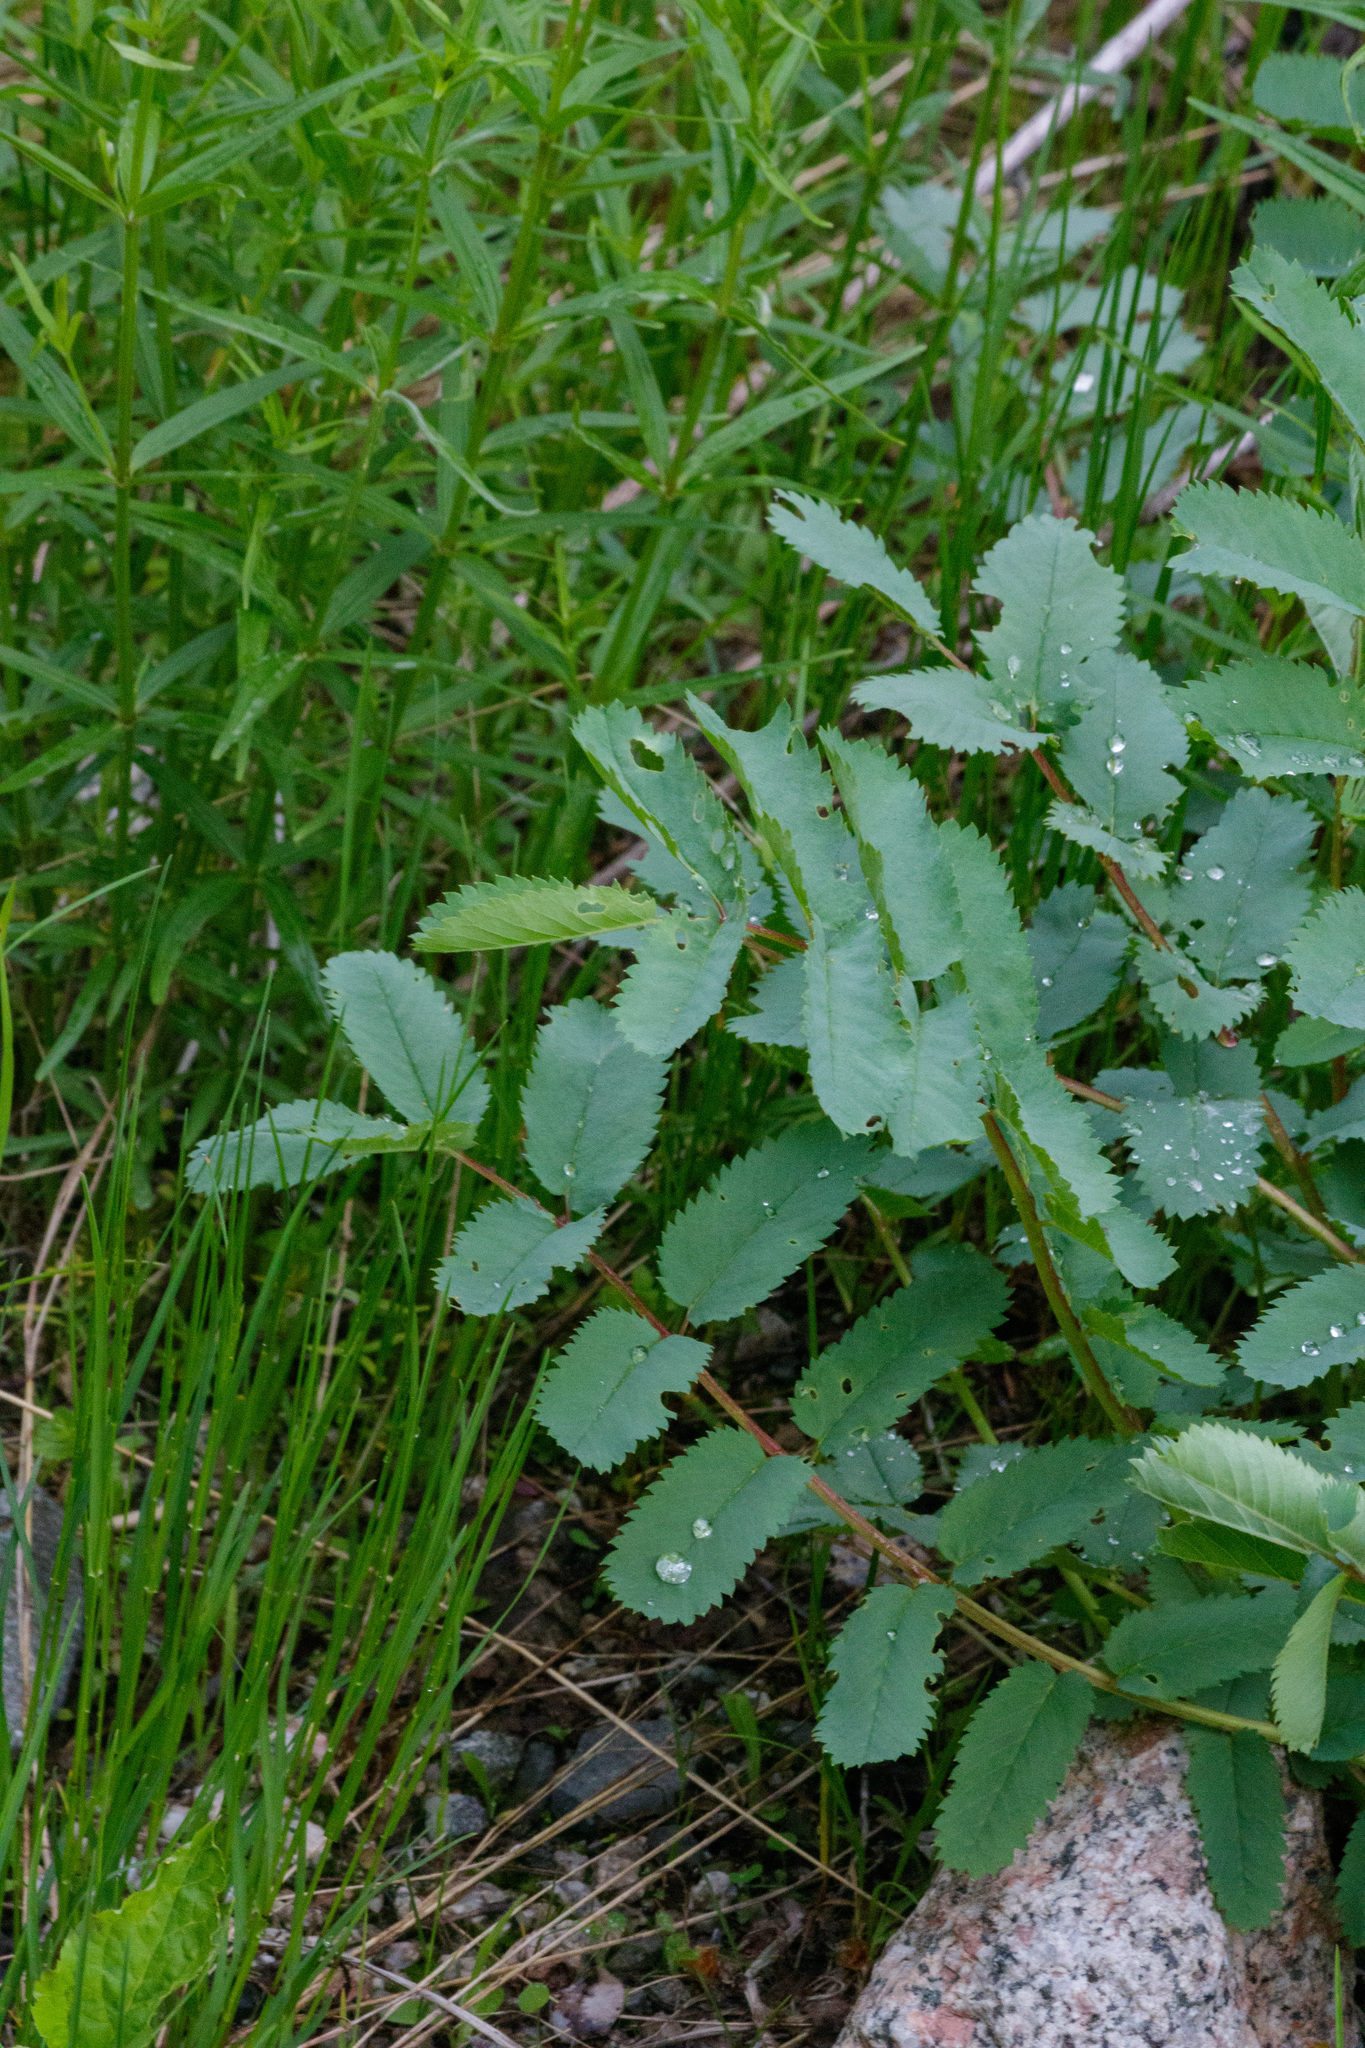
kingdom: Plantae
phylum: Tracheophyta
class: Magnoliopsida
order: Rosales
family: Rosaceae
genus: Poterium
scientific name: Poterium sanguisorba
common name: Salad burnet
